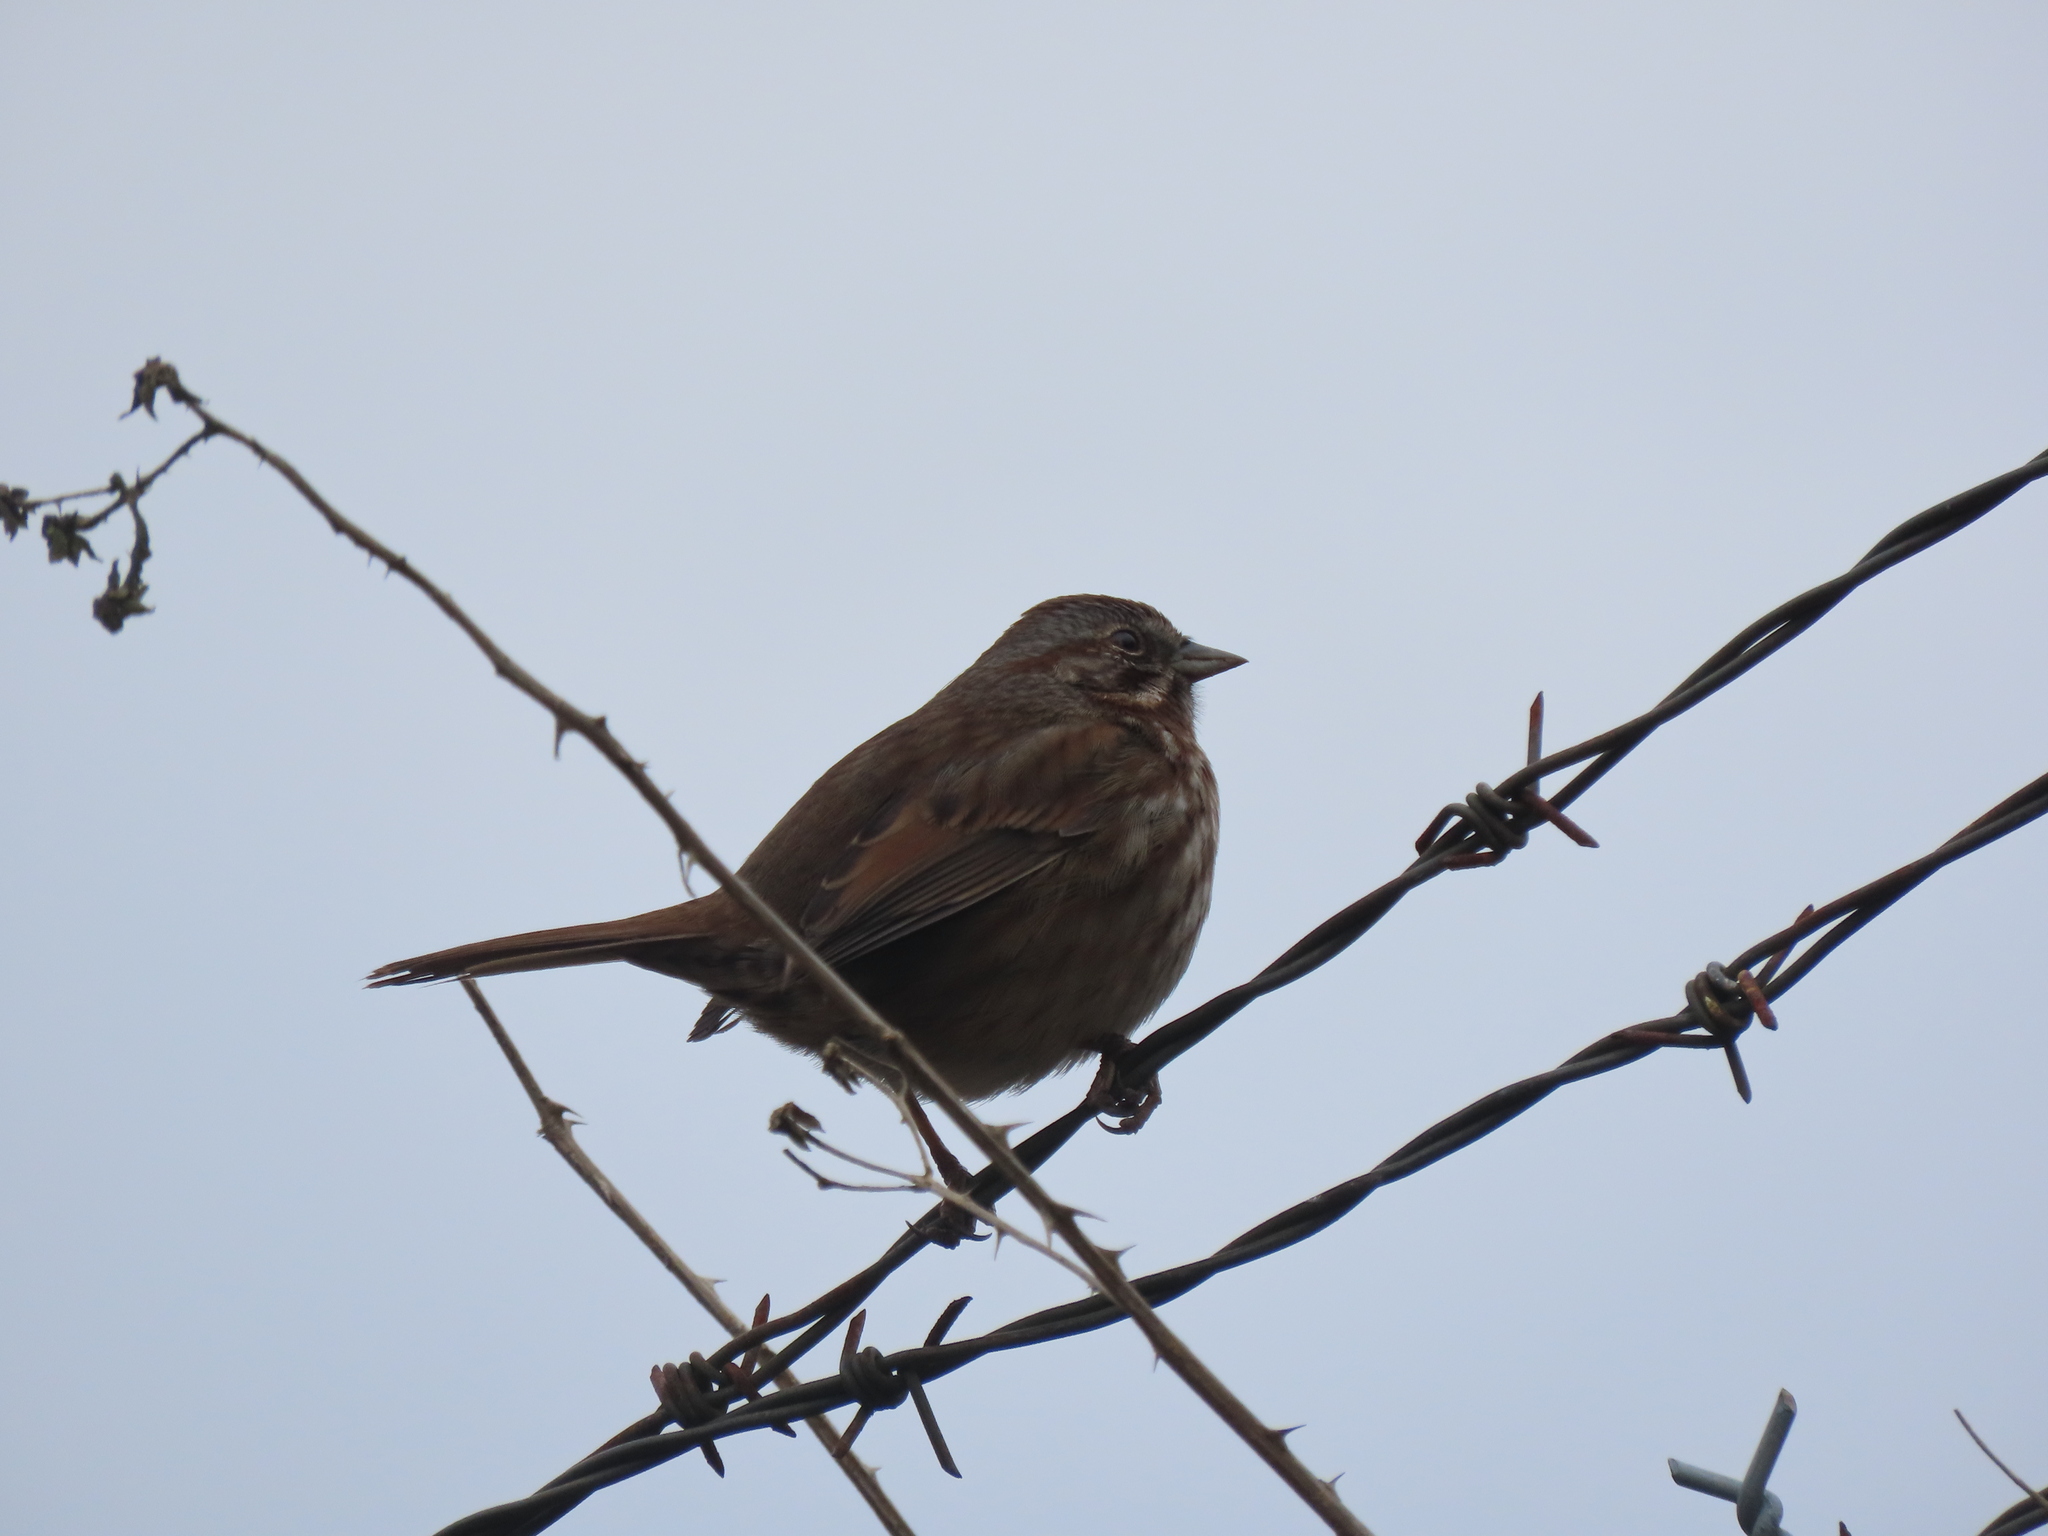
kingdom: Animalia
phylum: Chordata
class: Aves
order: Passeriformes
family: Passerellidae
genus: Melospiza
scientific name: Melospiza melodia
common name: Song sparrow
